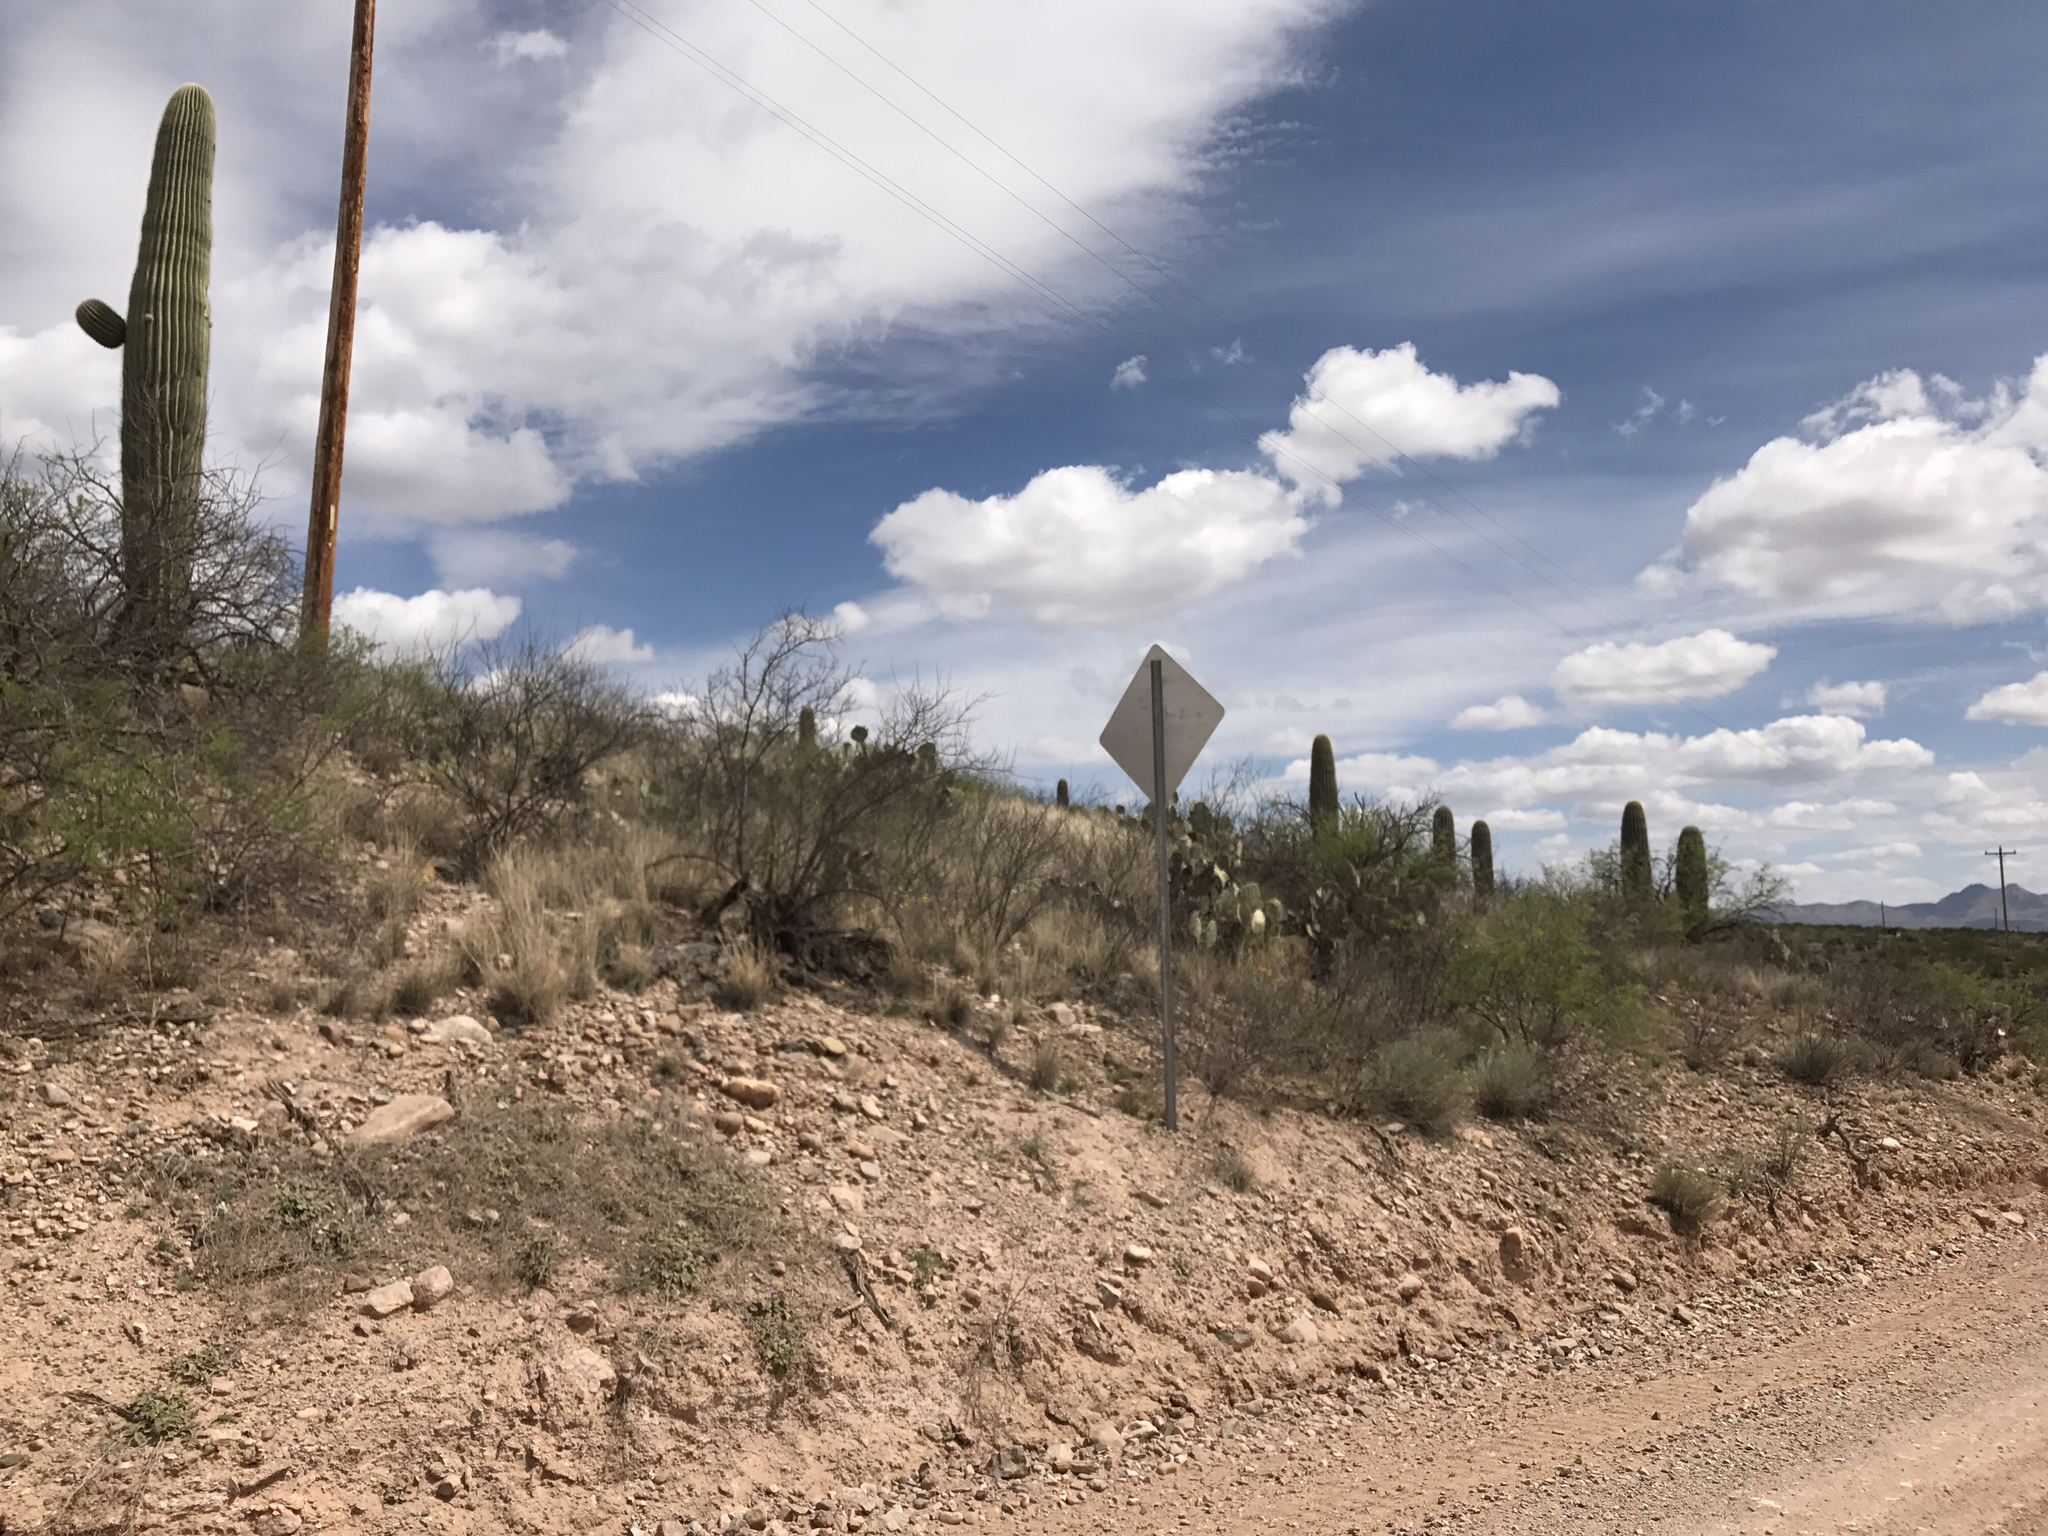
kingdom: Plantae
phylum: Tracheophyta
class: Magnoliopsida
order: Caryophyllales
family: Cactaceae
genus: Carnegiea
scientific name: Carnegiea gigantea
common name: Saguaro
